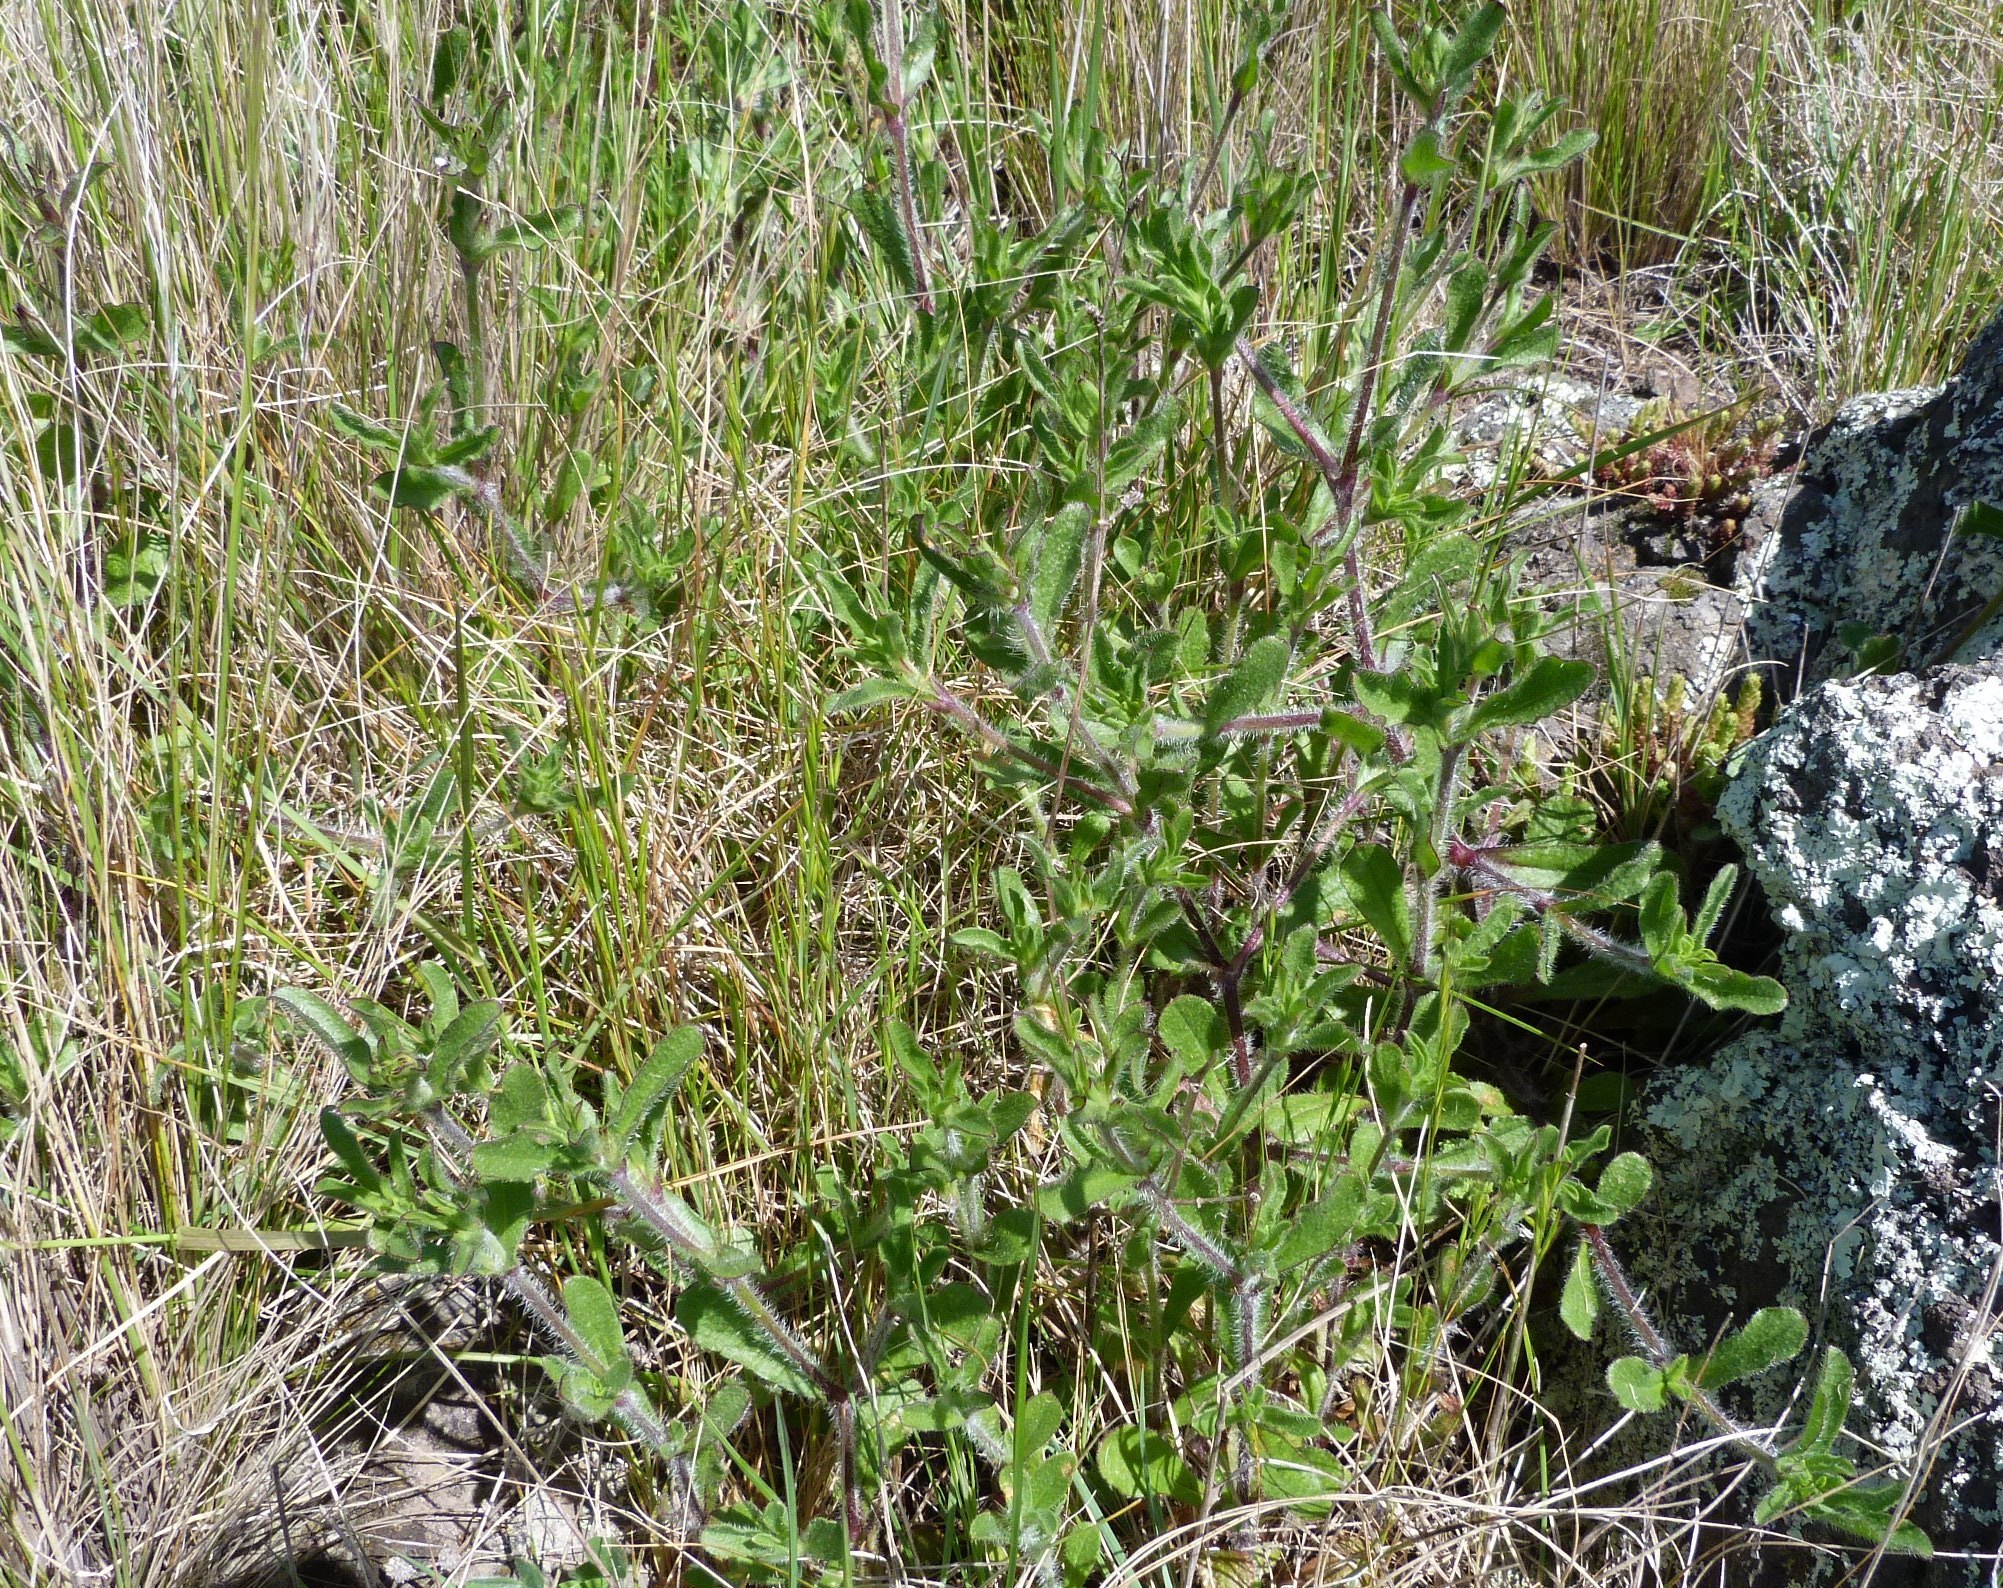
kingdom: Plantae
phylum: Tracheophyta
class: Magnoliopsida
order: Caryophyllales
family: Caryophyllaceae
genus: Silene
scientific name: Silene gallica
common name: Small-flowered catchfly
